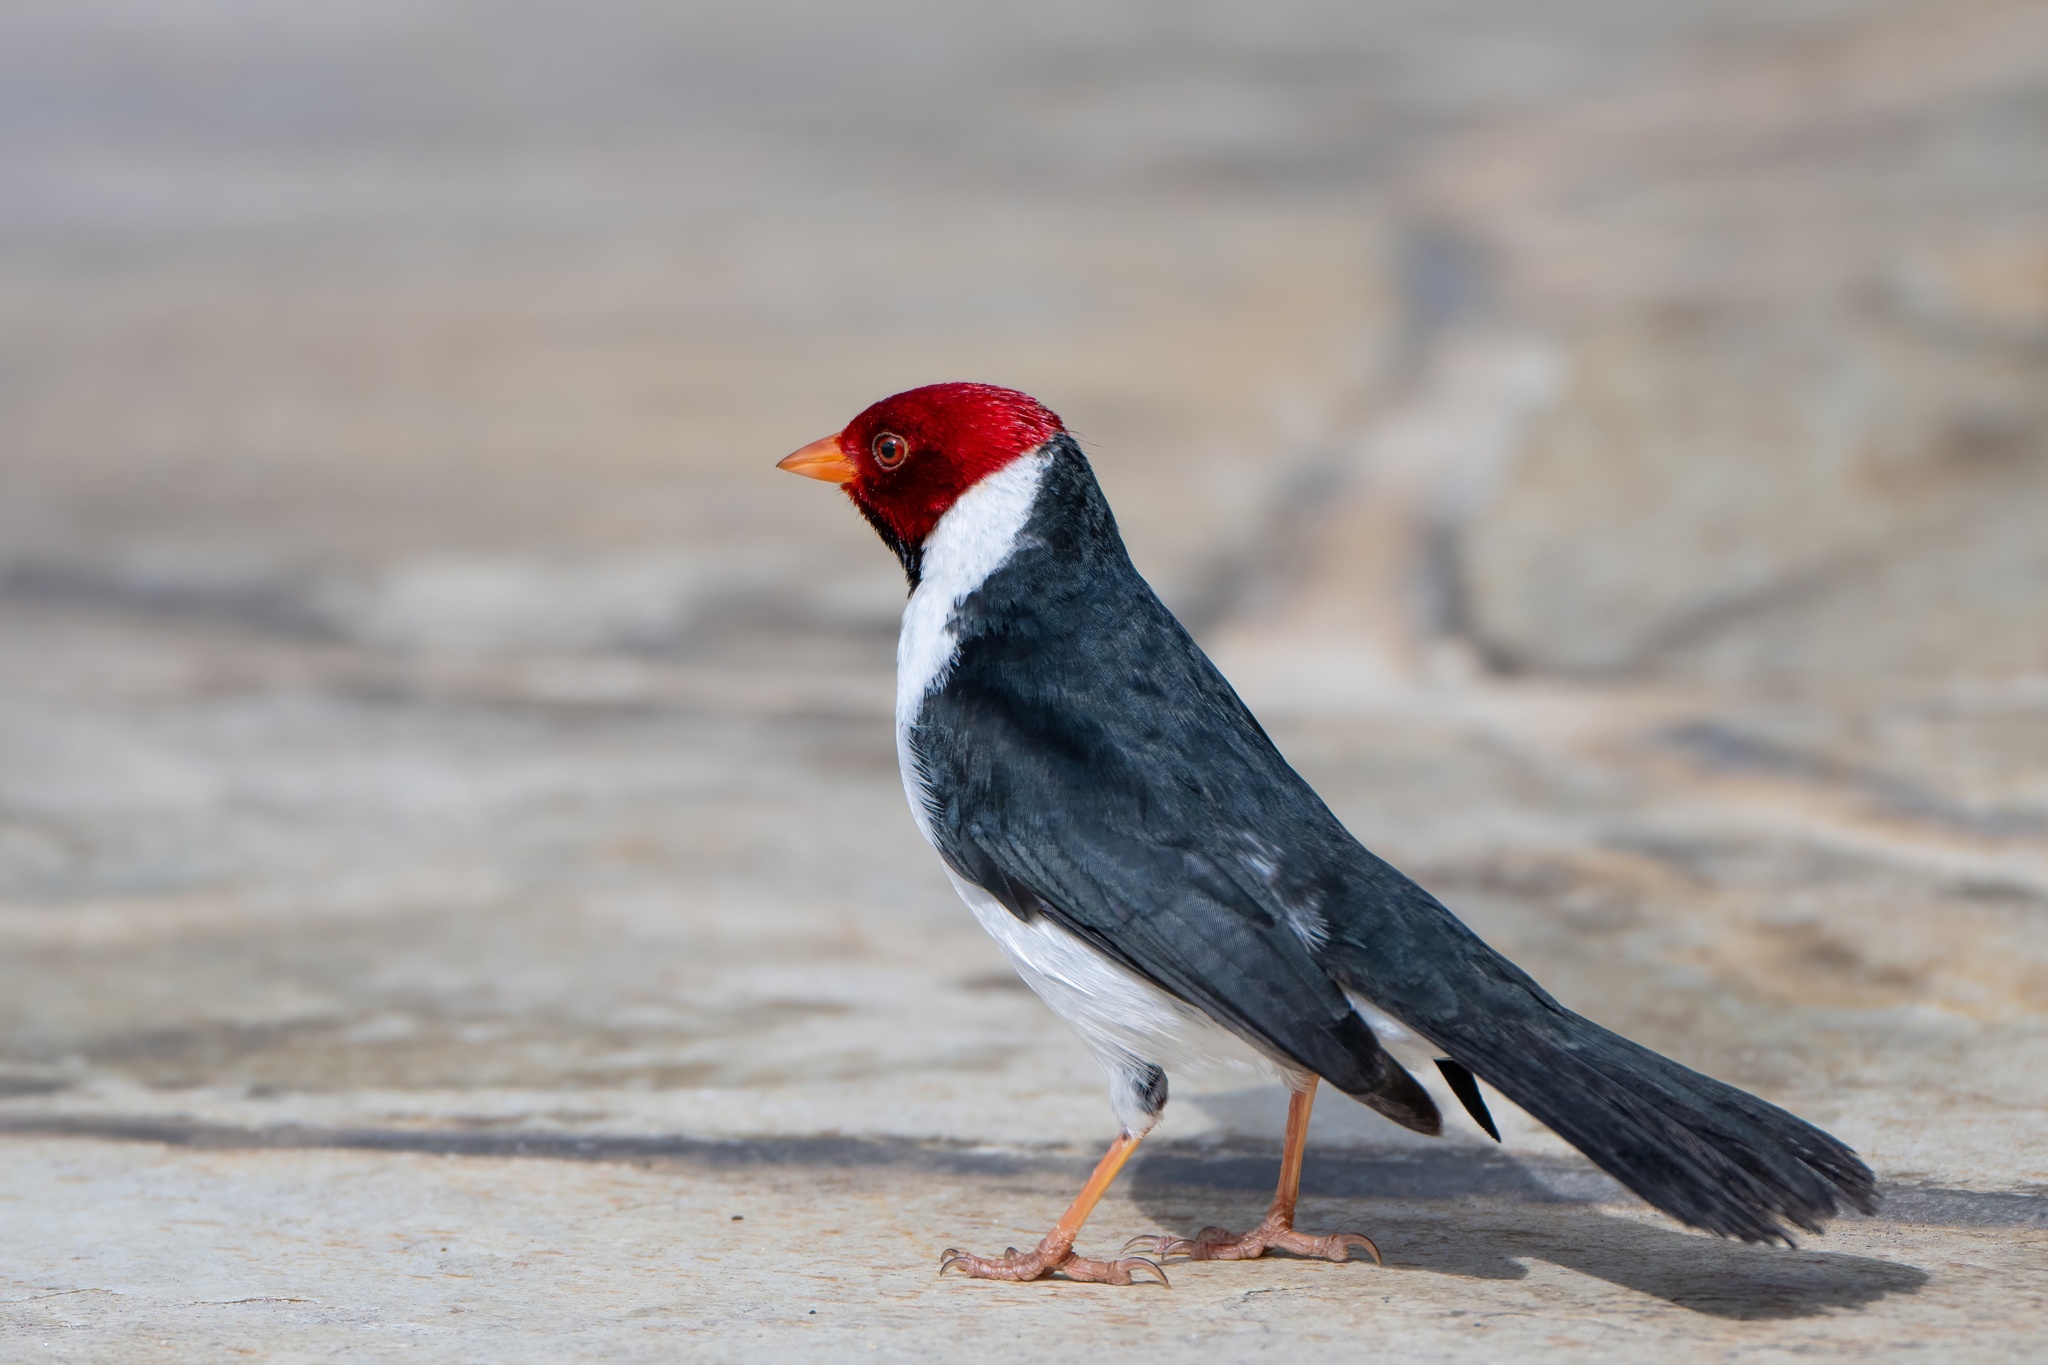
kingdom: Animalia
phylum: Chordata
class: Aves
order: Passeriformes
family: Thraupidae
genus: Paroaria
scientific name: Paroaria capitata
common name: Yellow-billed cardinal
